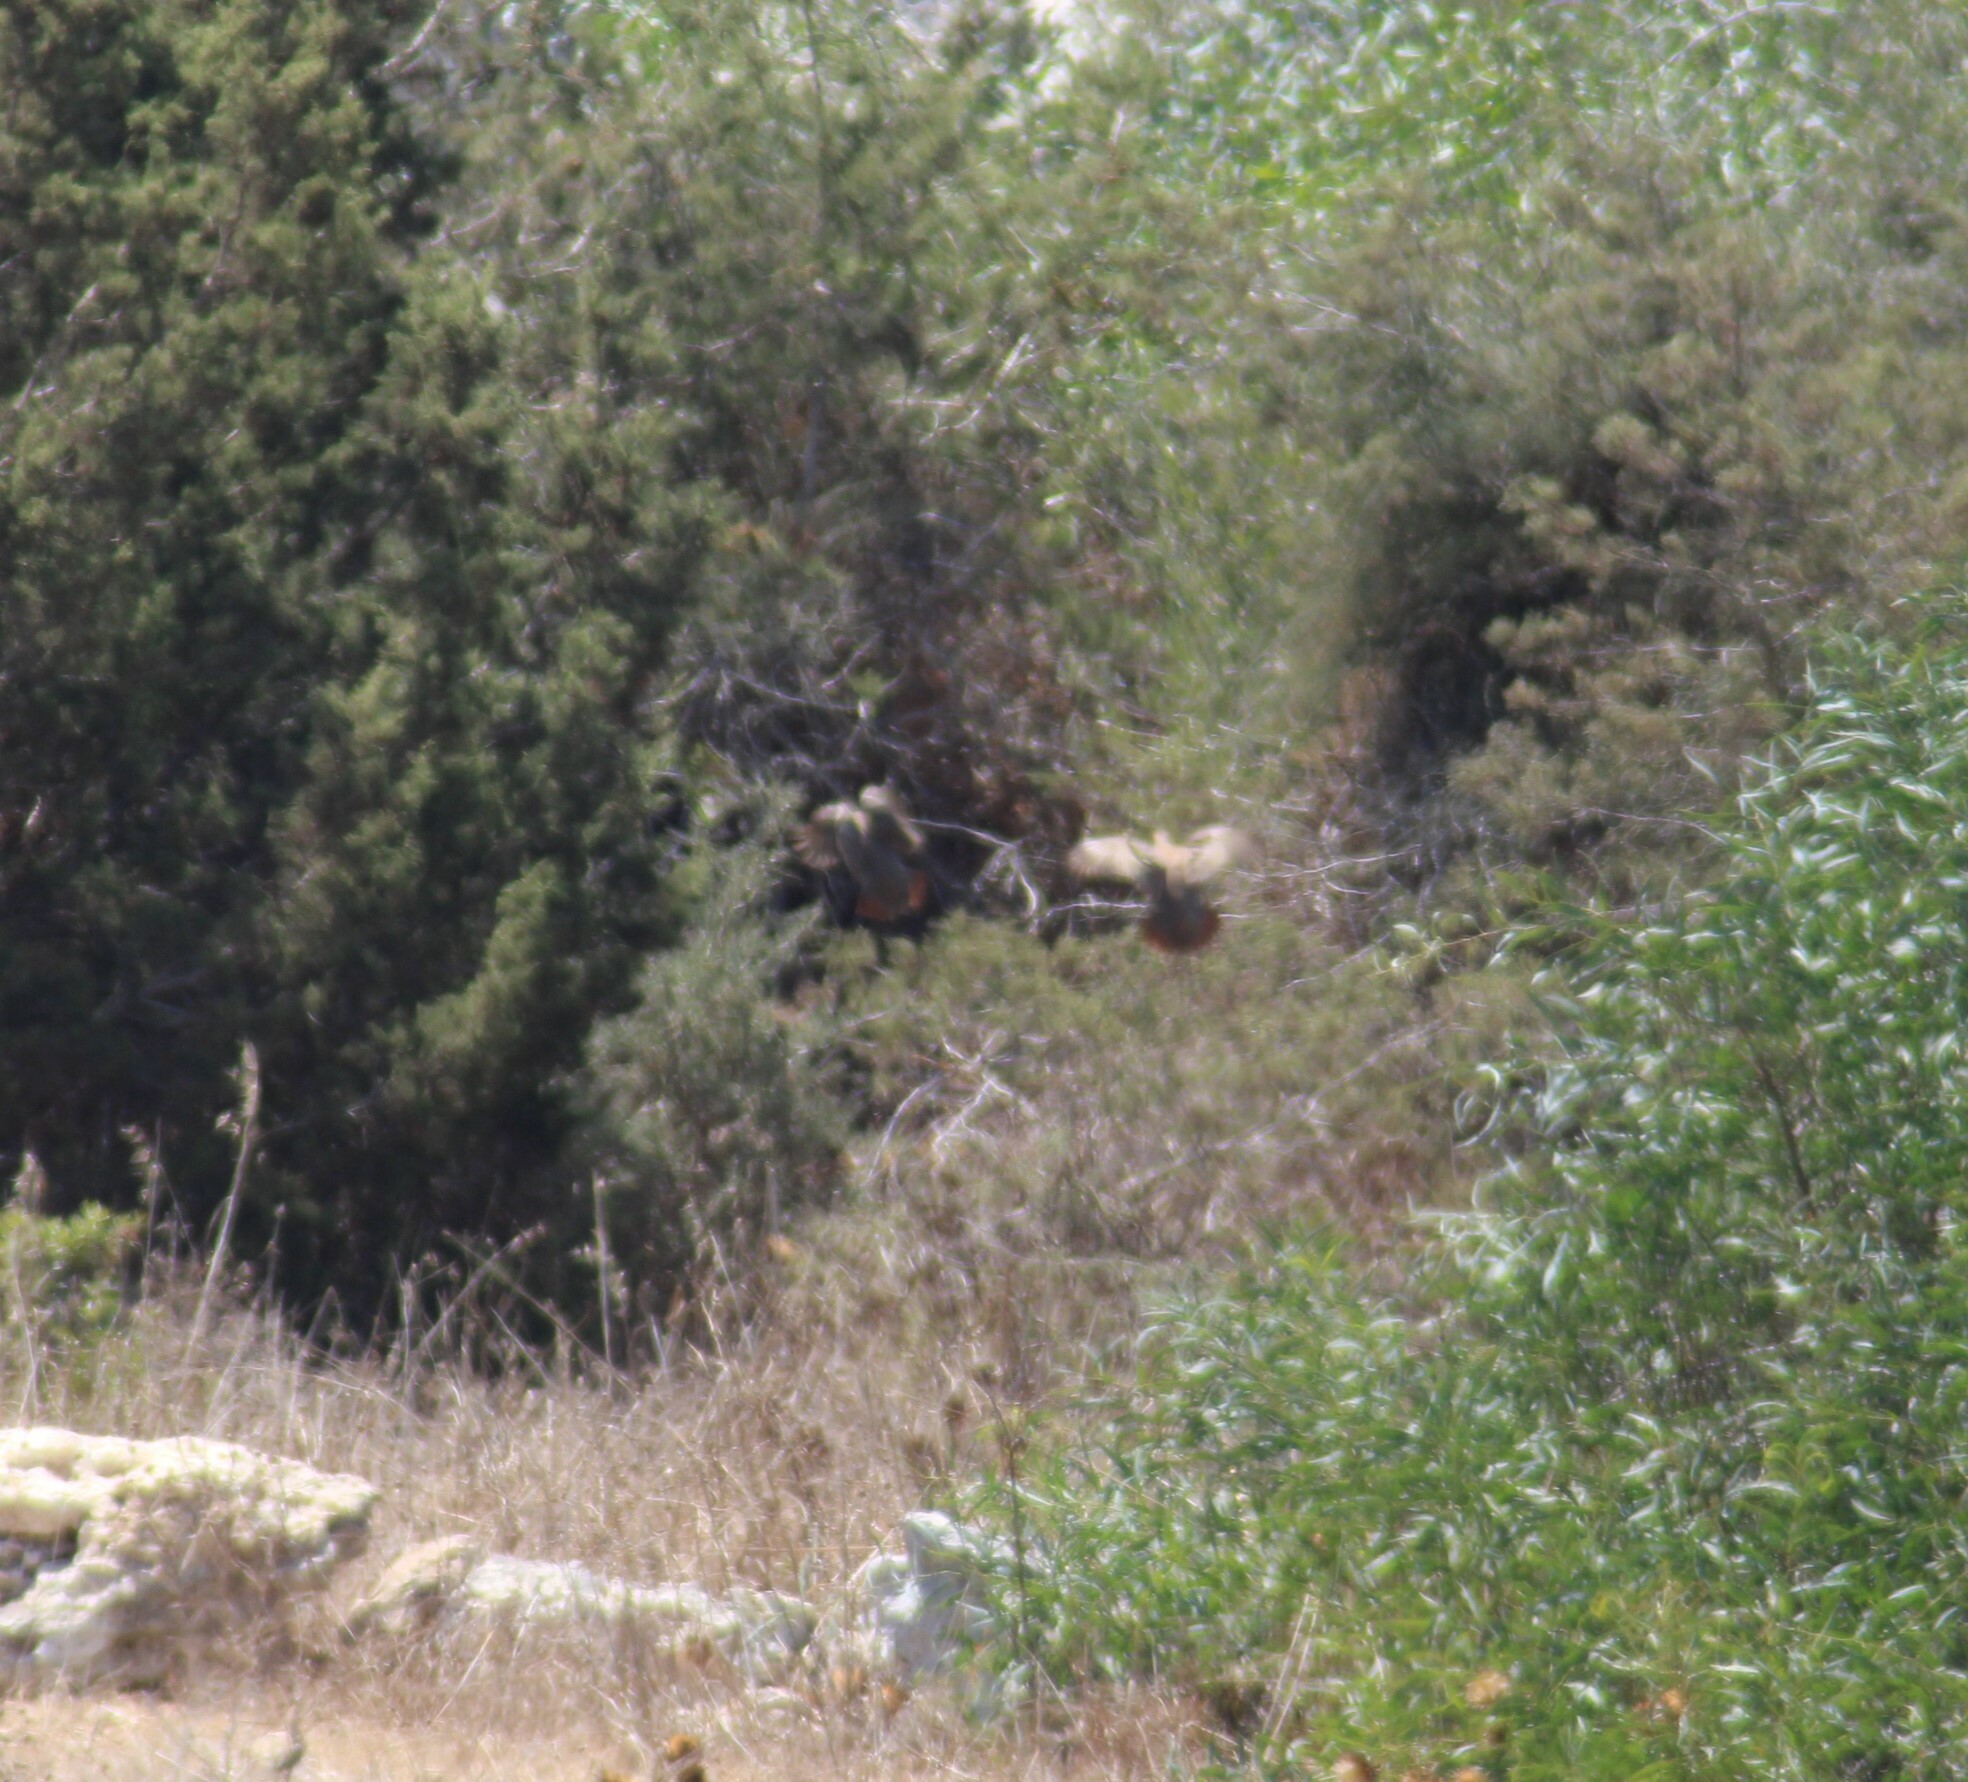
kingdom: Animalia
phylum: Chordata
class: Aves
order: Galliformes
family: Phasianidae
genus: Alectoris
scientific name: Alectoris chukar
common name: Chukar
